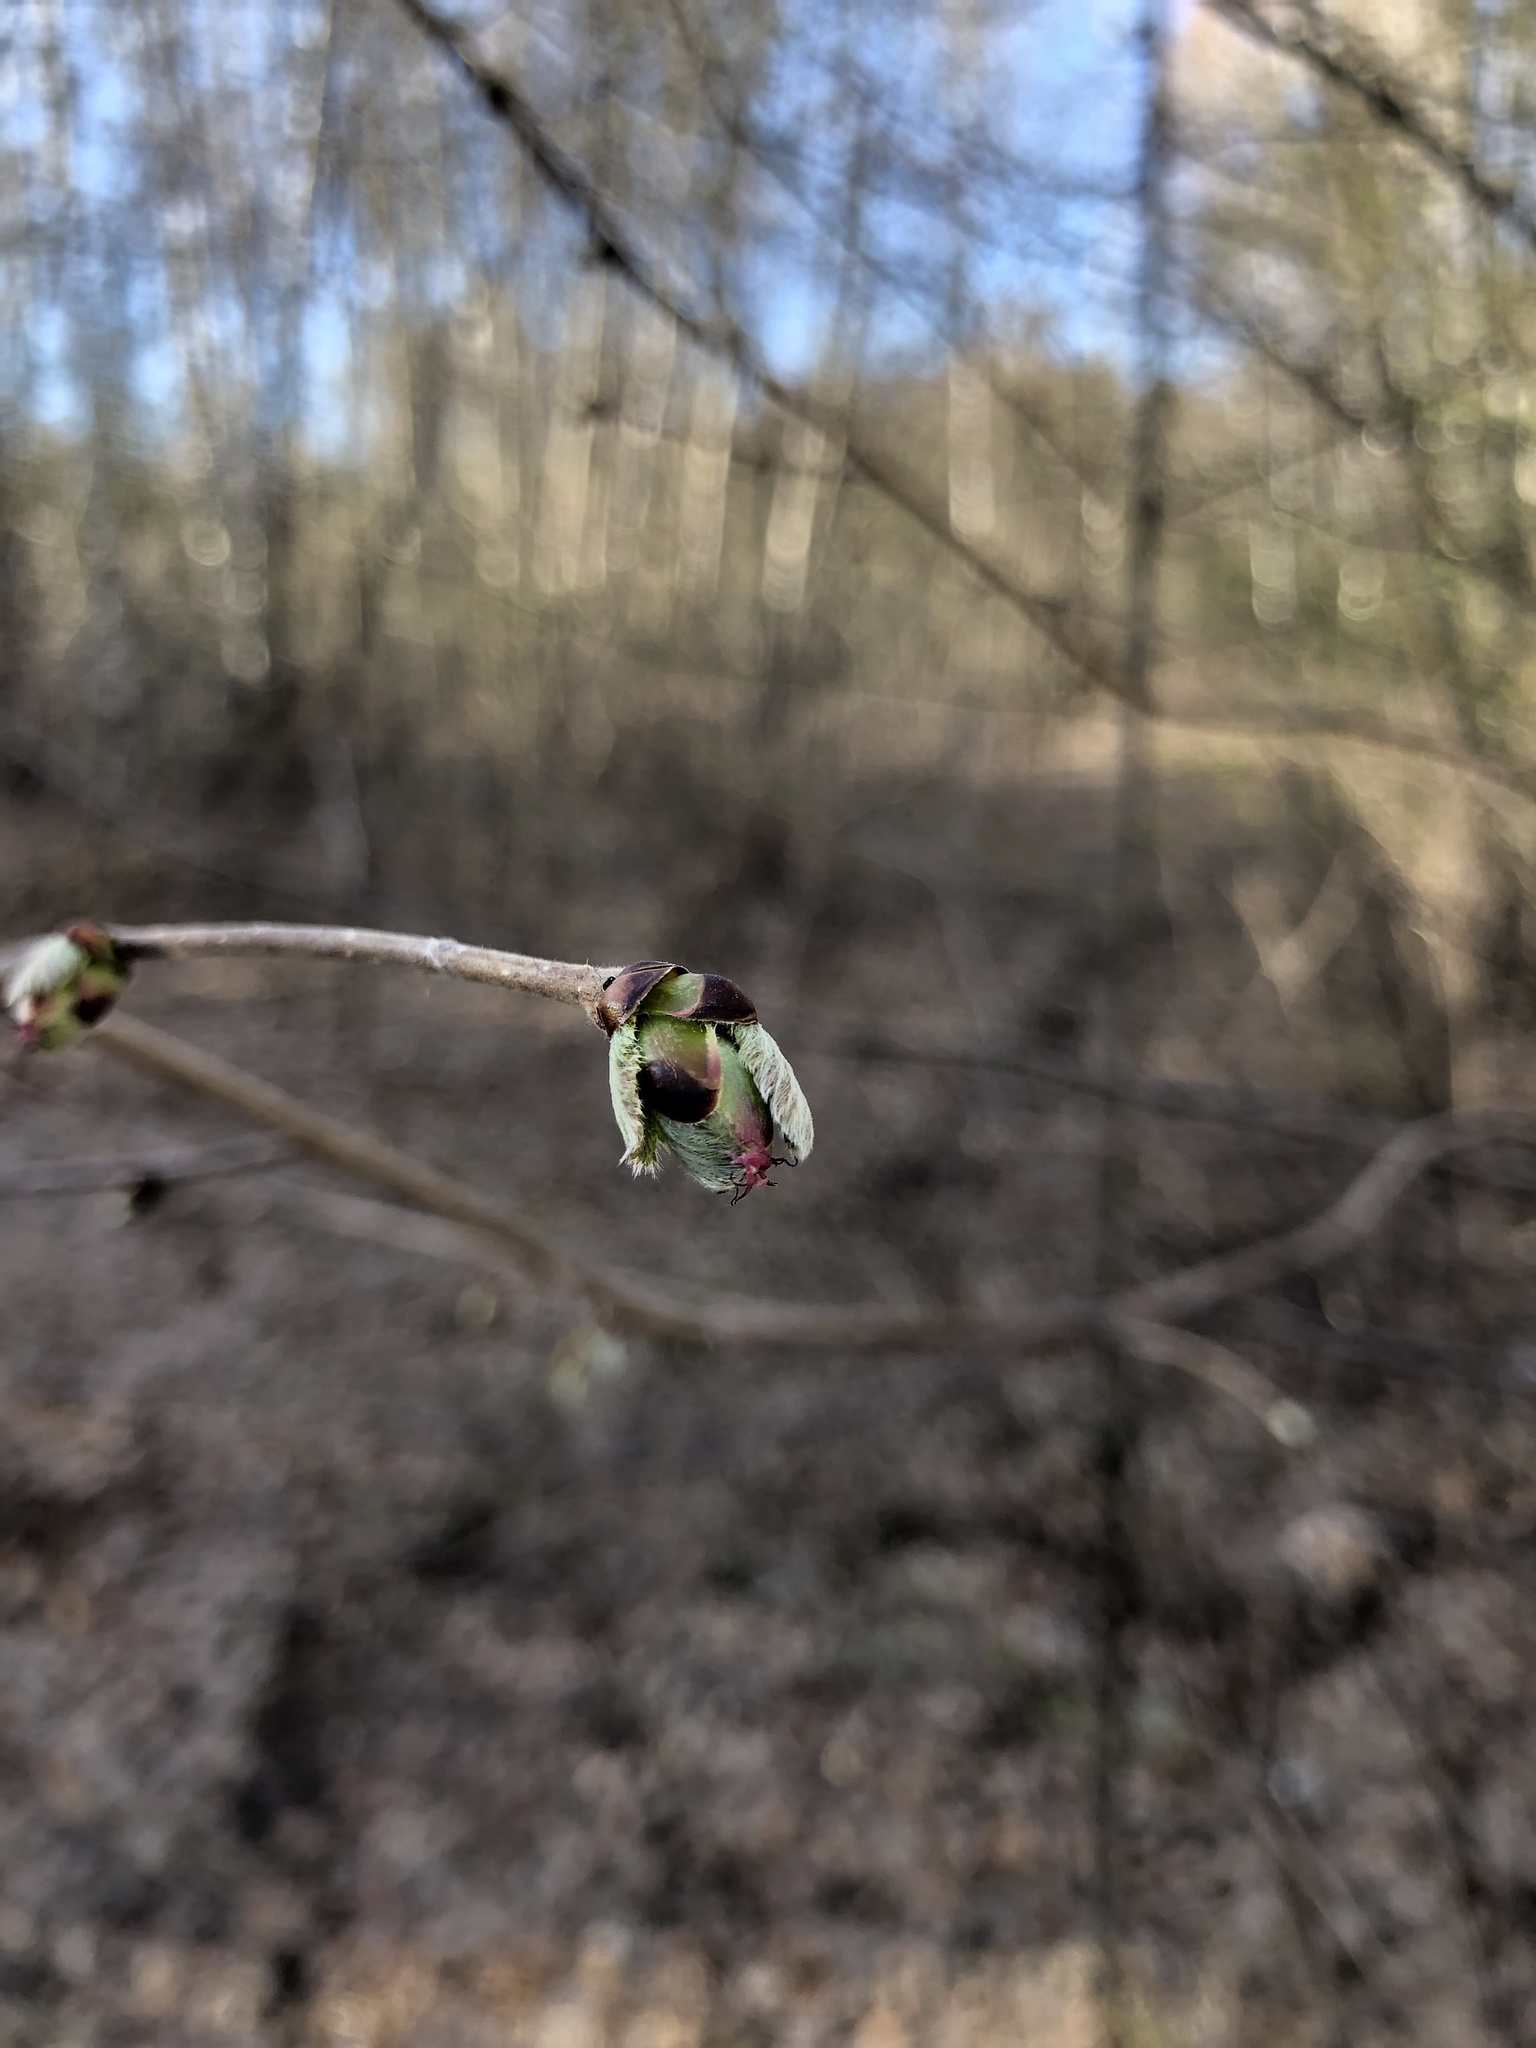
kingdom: Plantae
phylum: Tracheophyta
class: Magnoliopsida
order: Fagales
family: Betulaceae
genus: Corylus
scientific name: Corylus avellana
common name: European hazel
